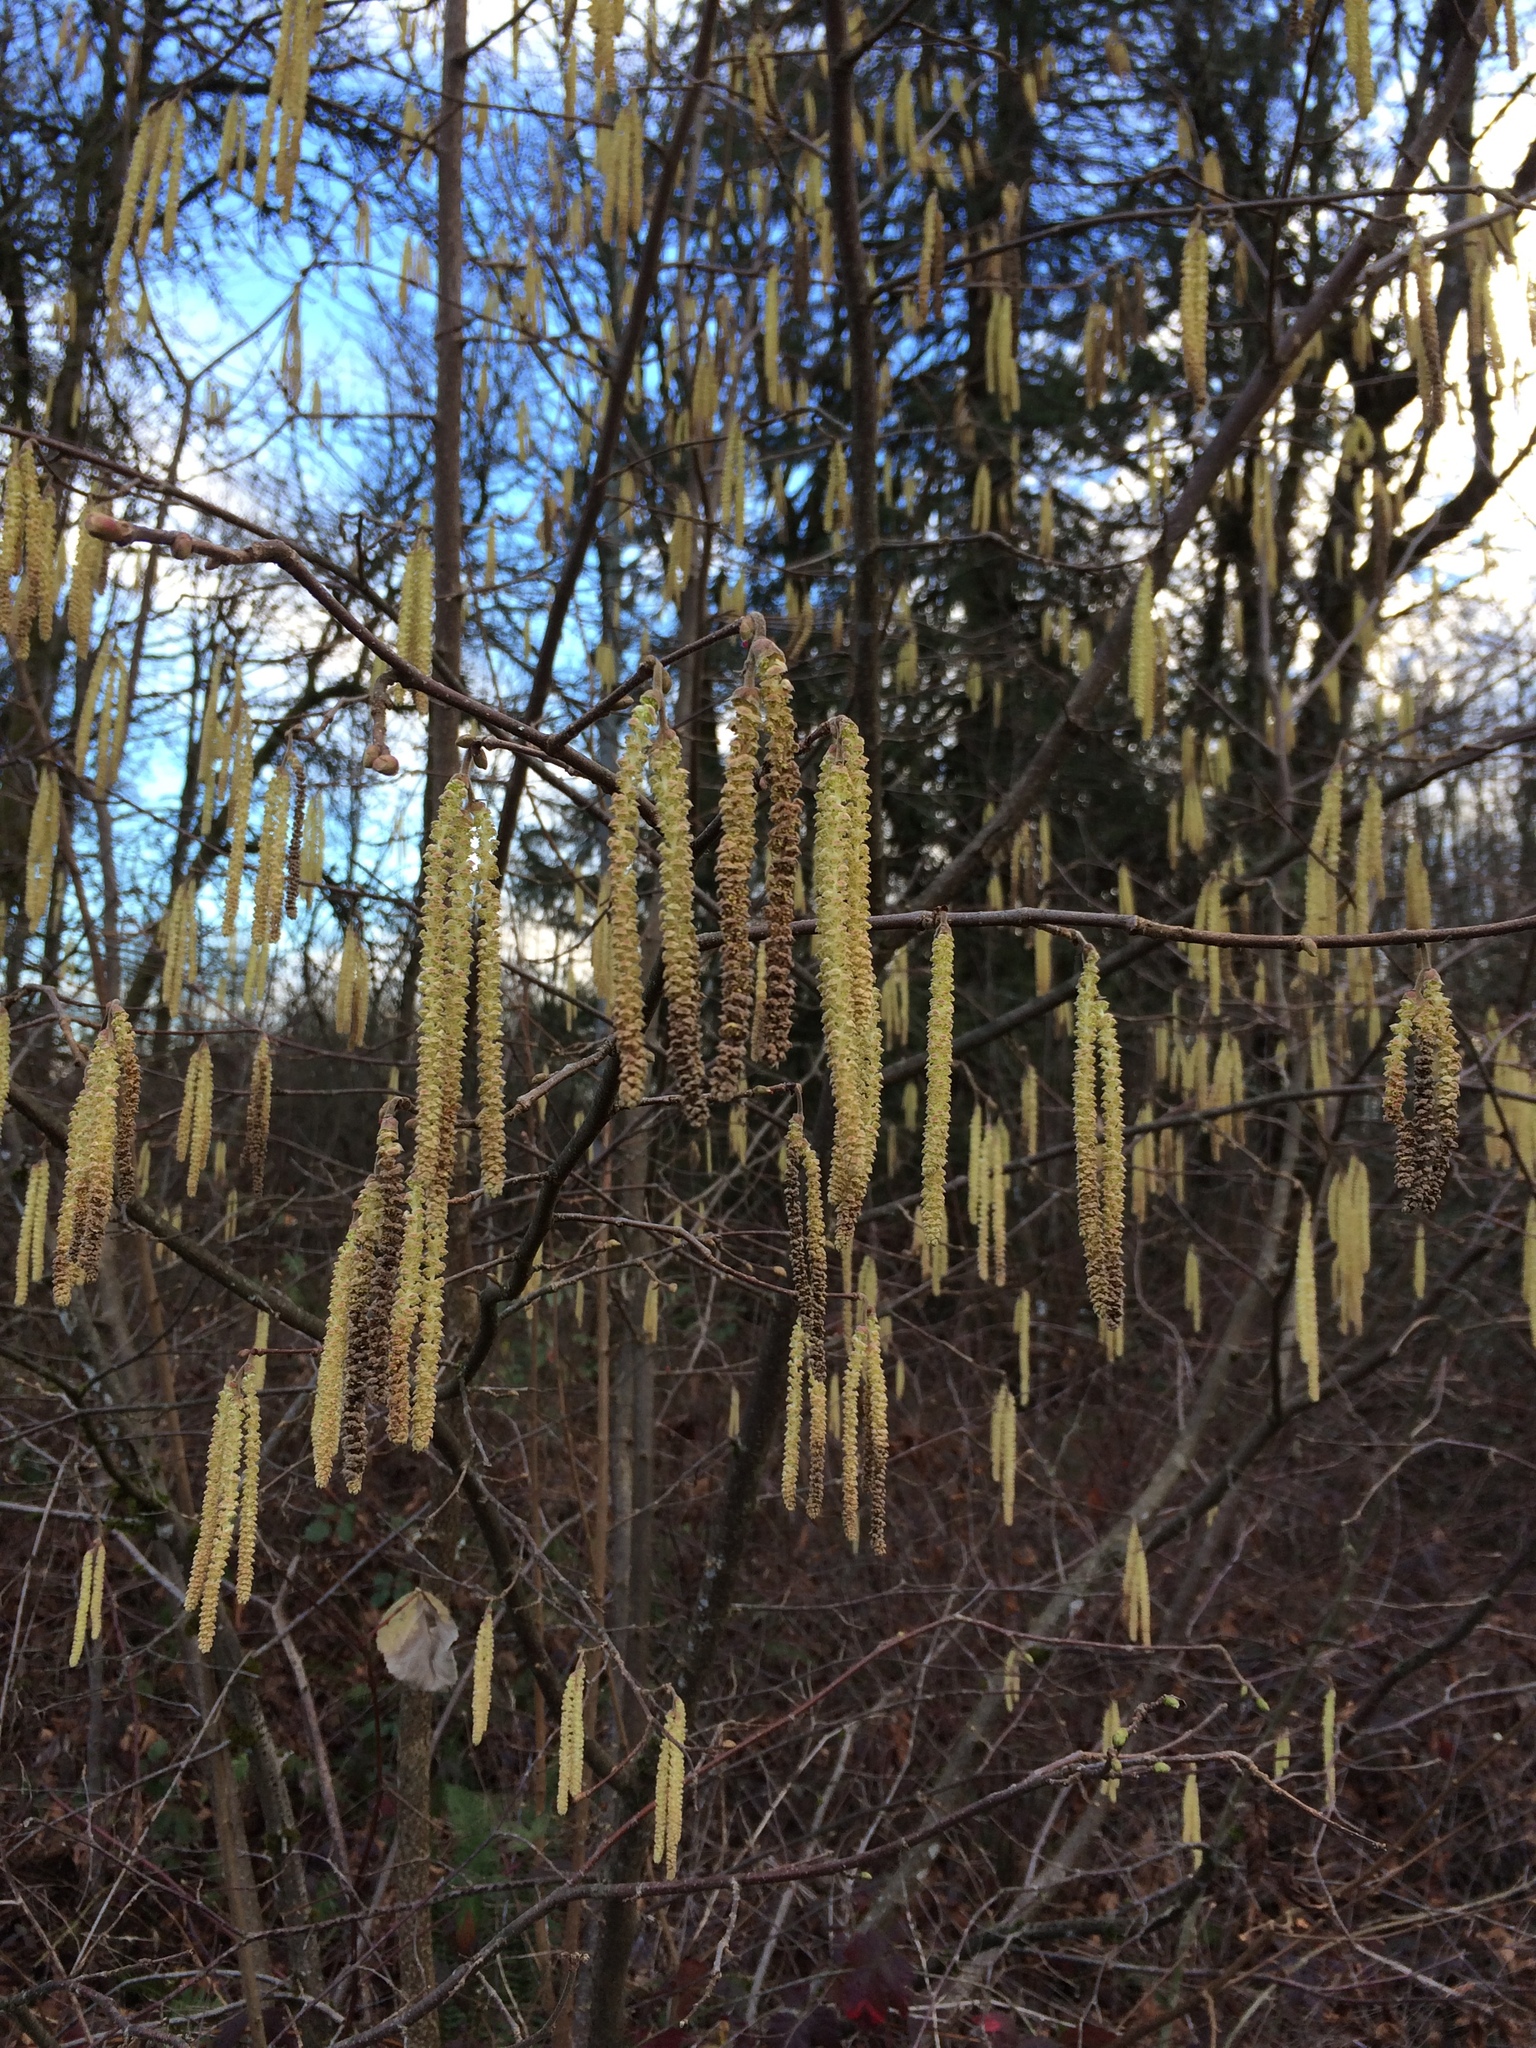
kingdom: Plantae
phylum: Tracheophyta
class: Magnoliopsida
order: Fagales
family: Betulaceae
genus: Corylus
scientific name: Corylus avellana
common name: European hazel
